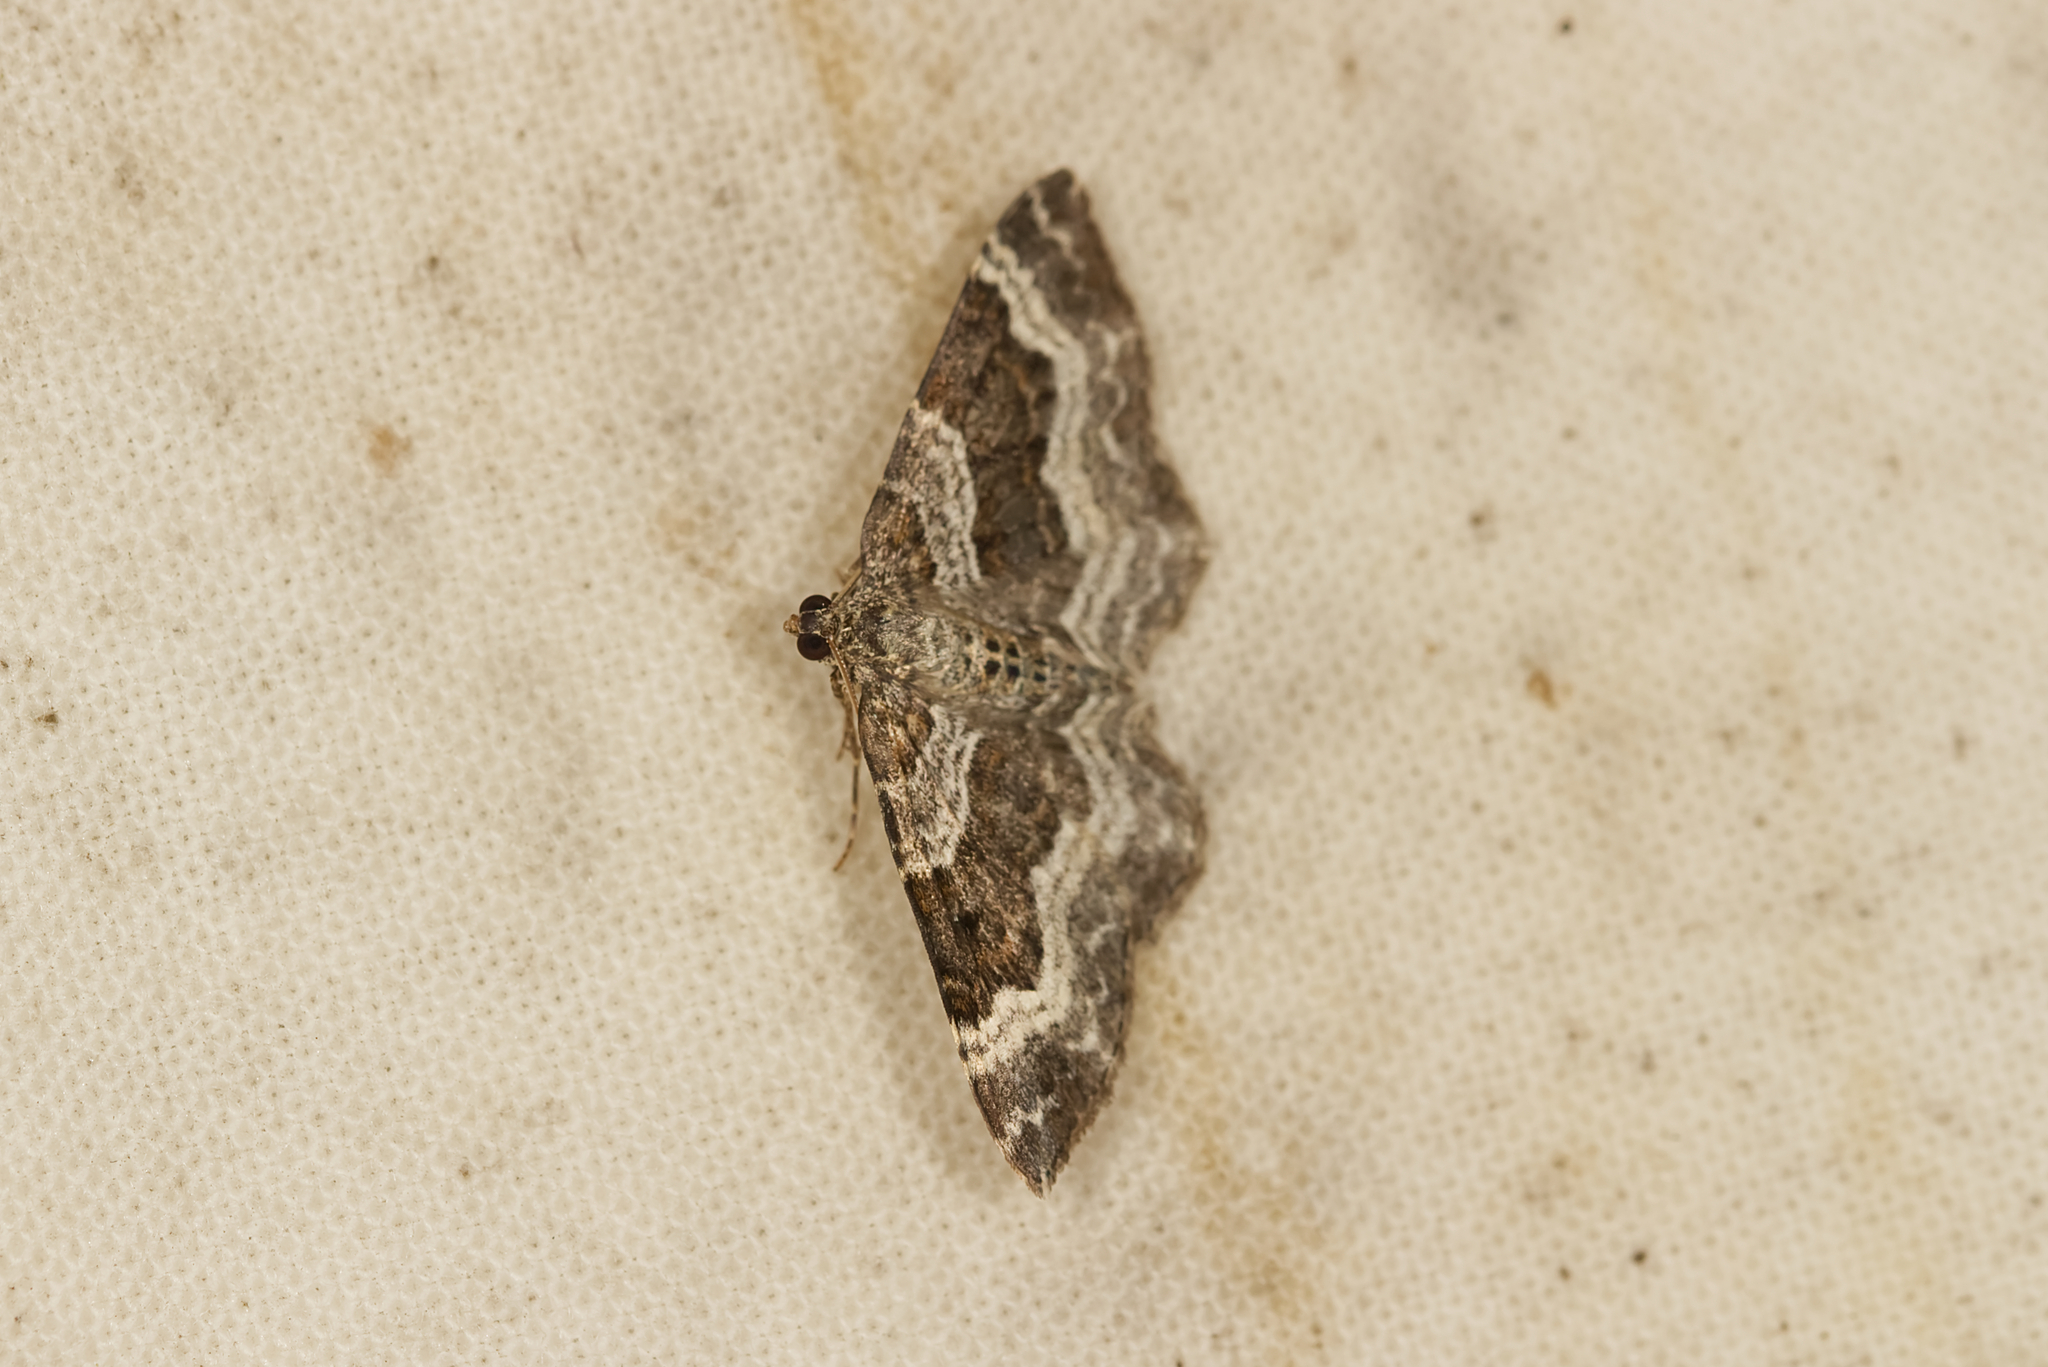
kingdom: Animalia
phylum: Arthropoda
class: Insecta
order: Lepidoptera
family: Geometridae
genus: Epirrhoe
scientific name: Epirrhoe alternata
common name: Common carpet
